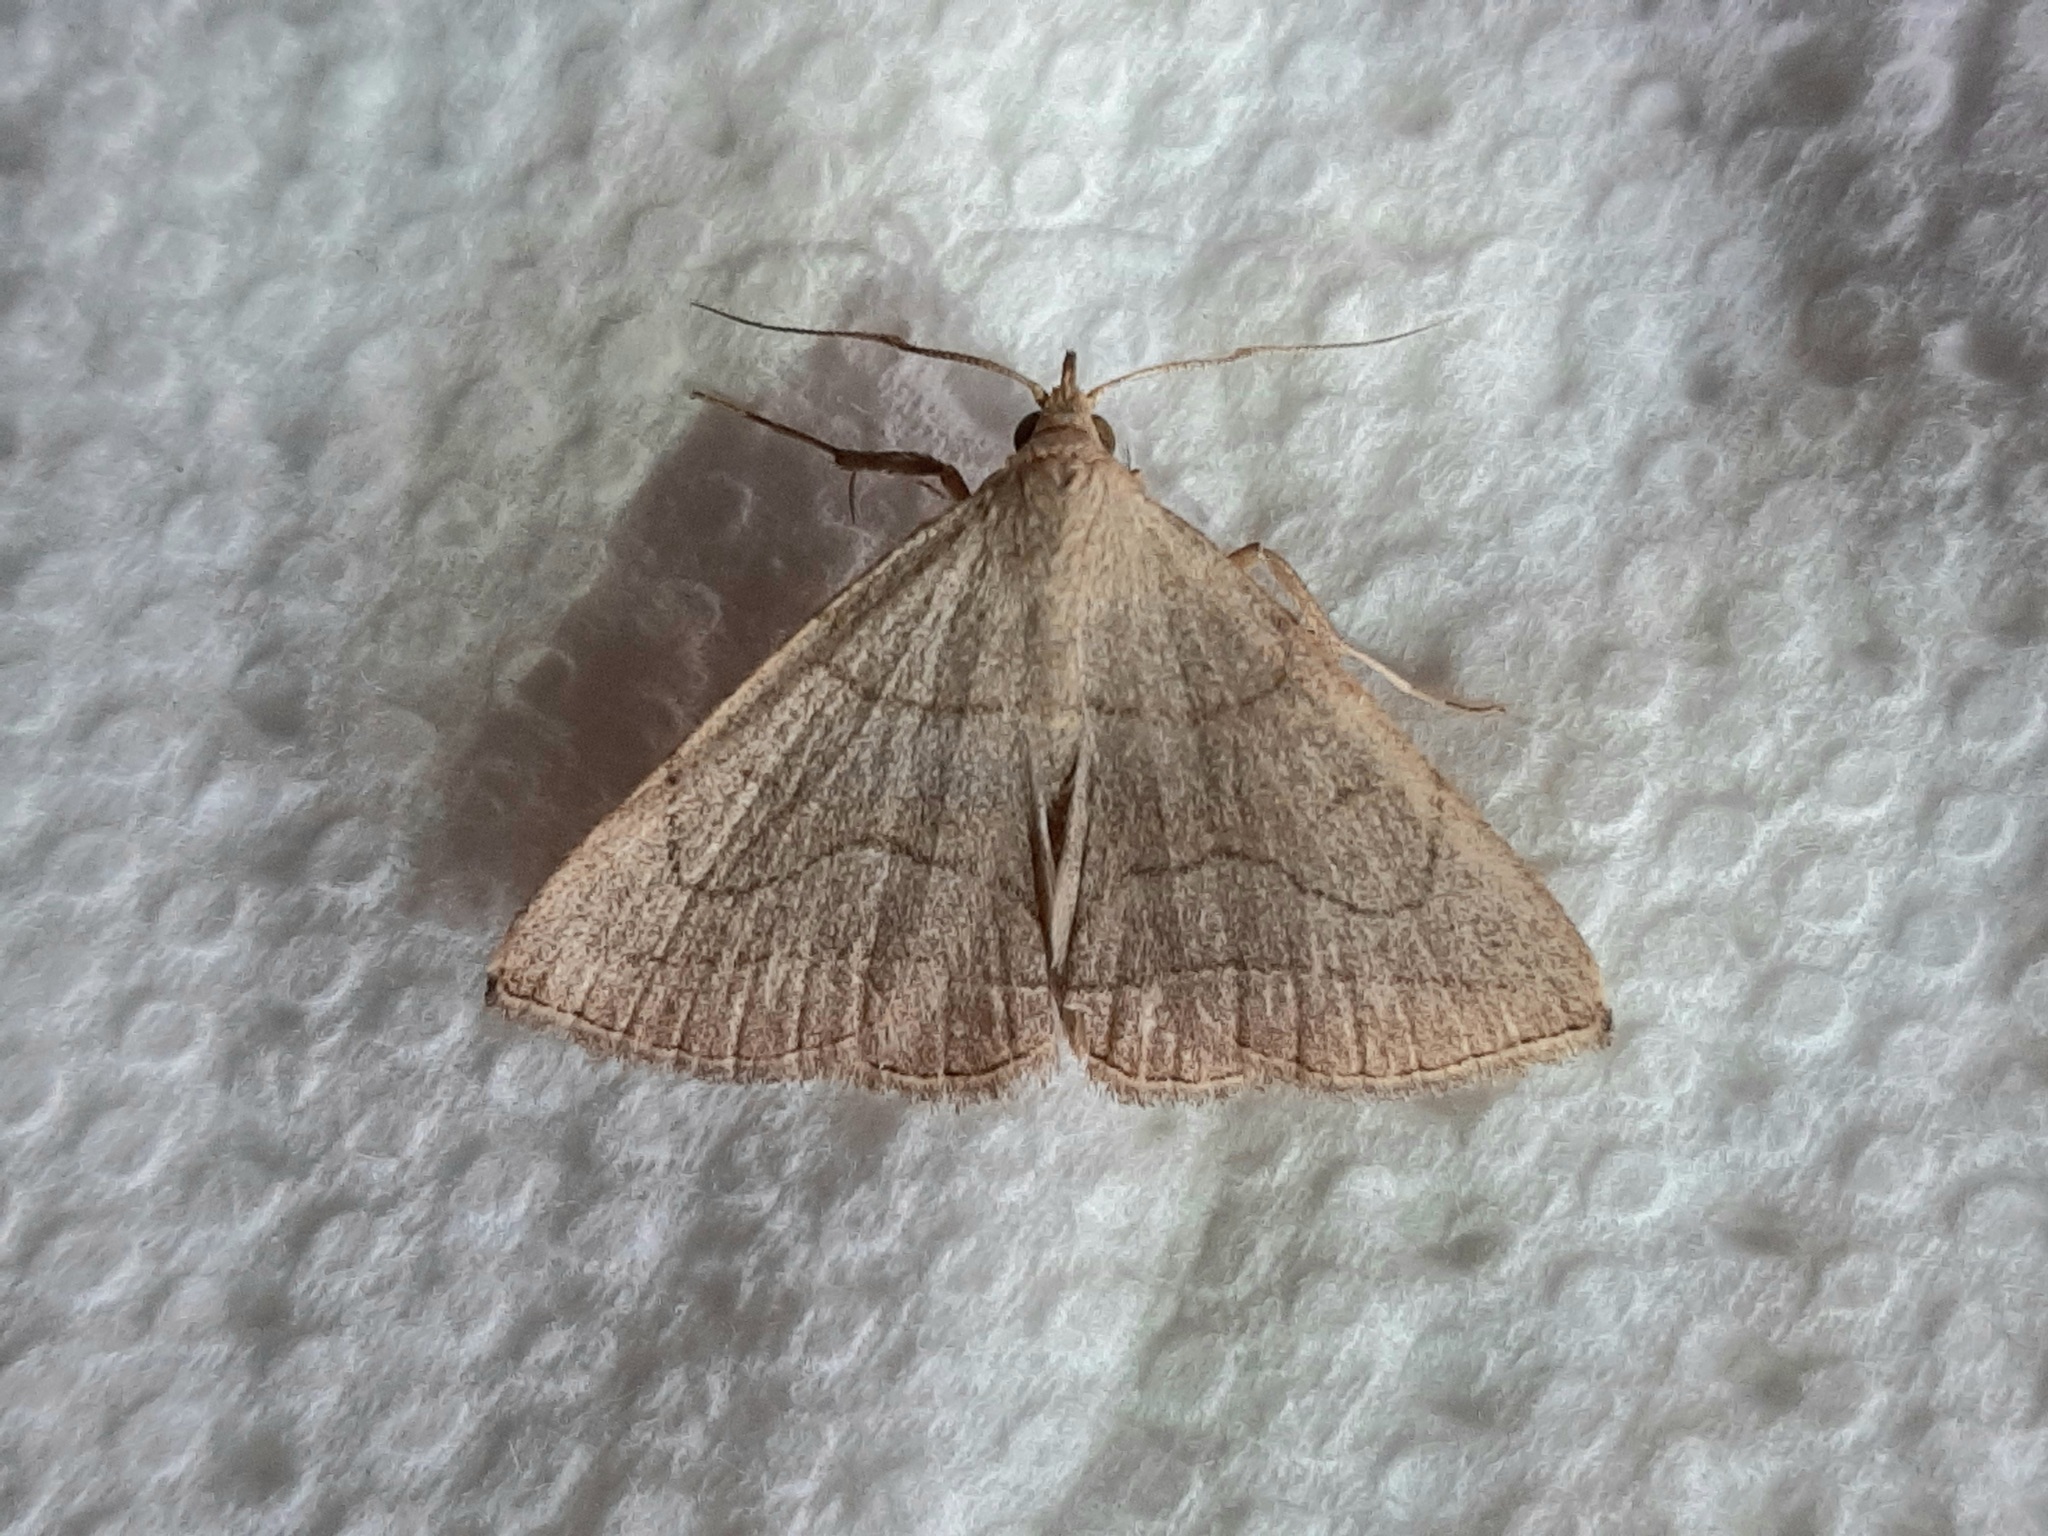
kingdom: Animalia
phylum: Arthropoda
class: Insecta
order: Lepidoptera
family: Erebidae
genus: Zanclognatha
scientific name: Zanclognatha pedipilalis
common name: Grayish fan-foot
